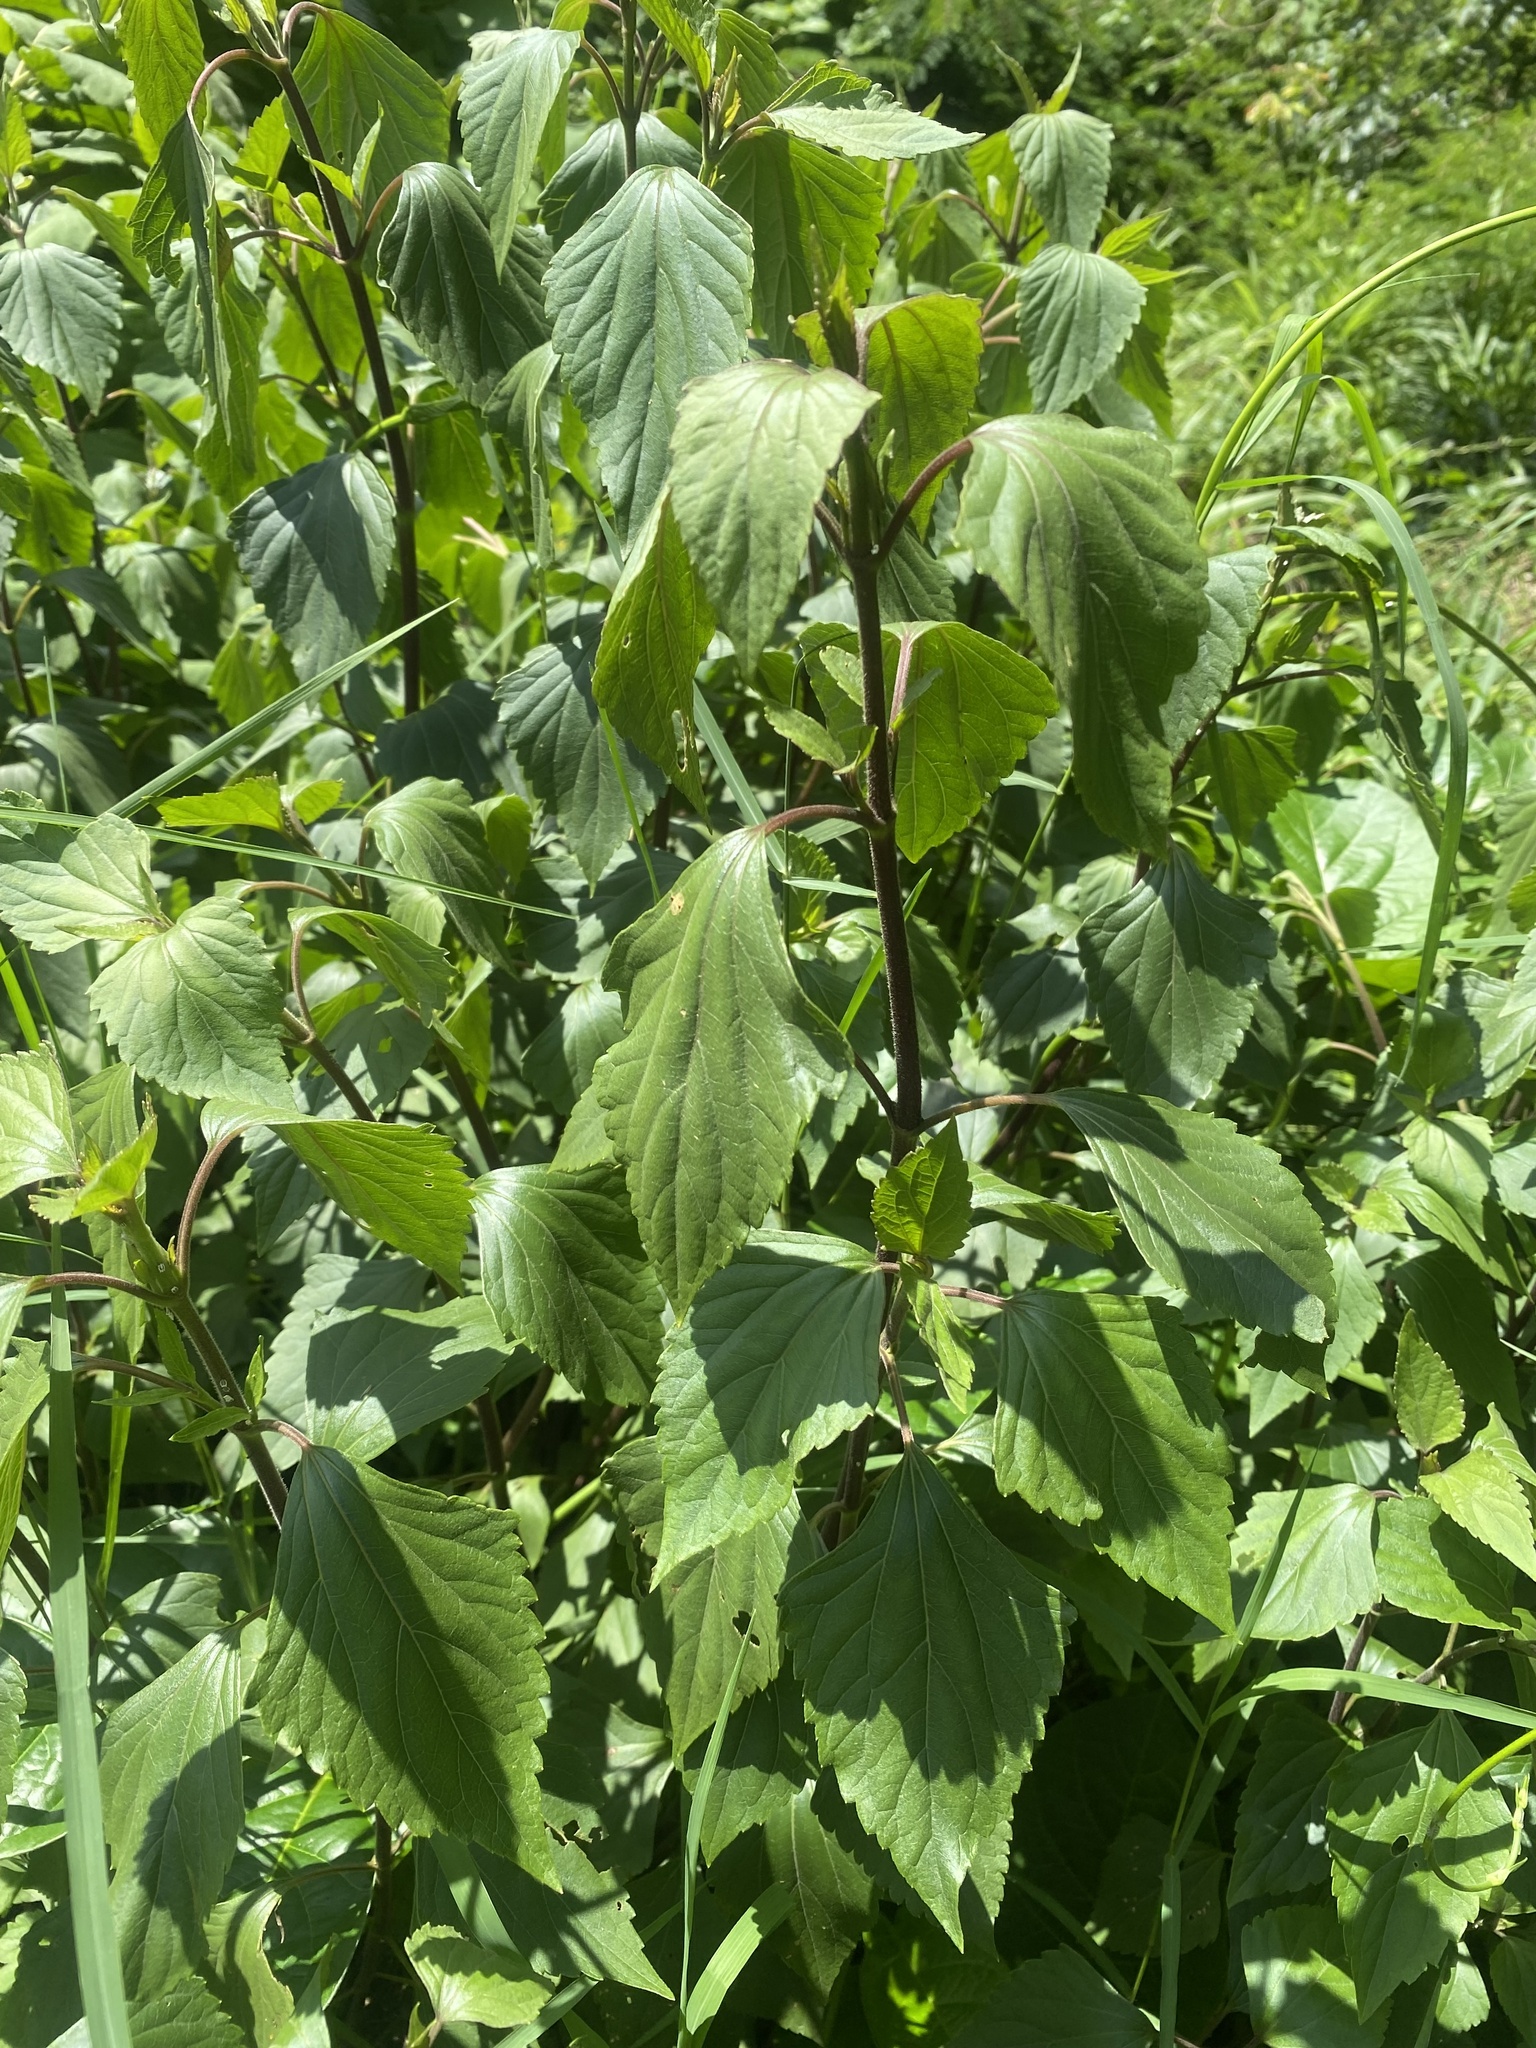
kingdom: Plantae
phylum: Tracheophyta
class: Magnoliopsida
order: Asterales
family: Asteraceae
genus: Ageratina
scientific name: Ageratina adenophora
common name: Sticky snakeroot
